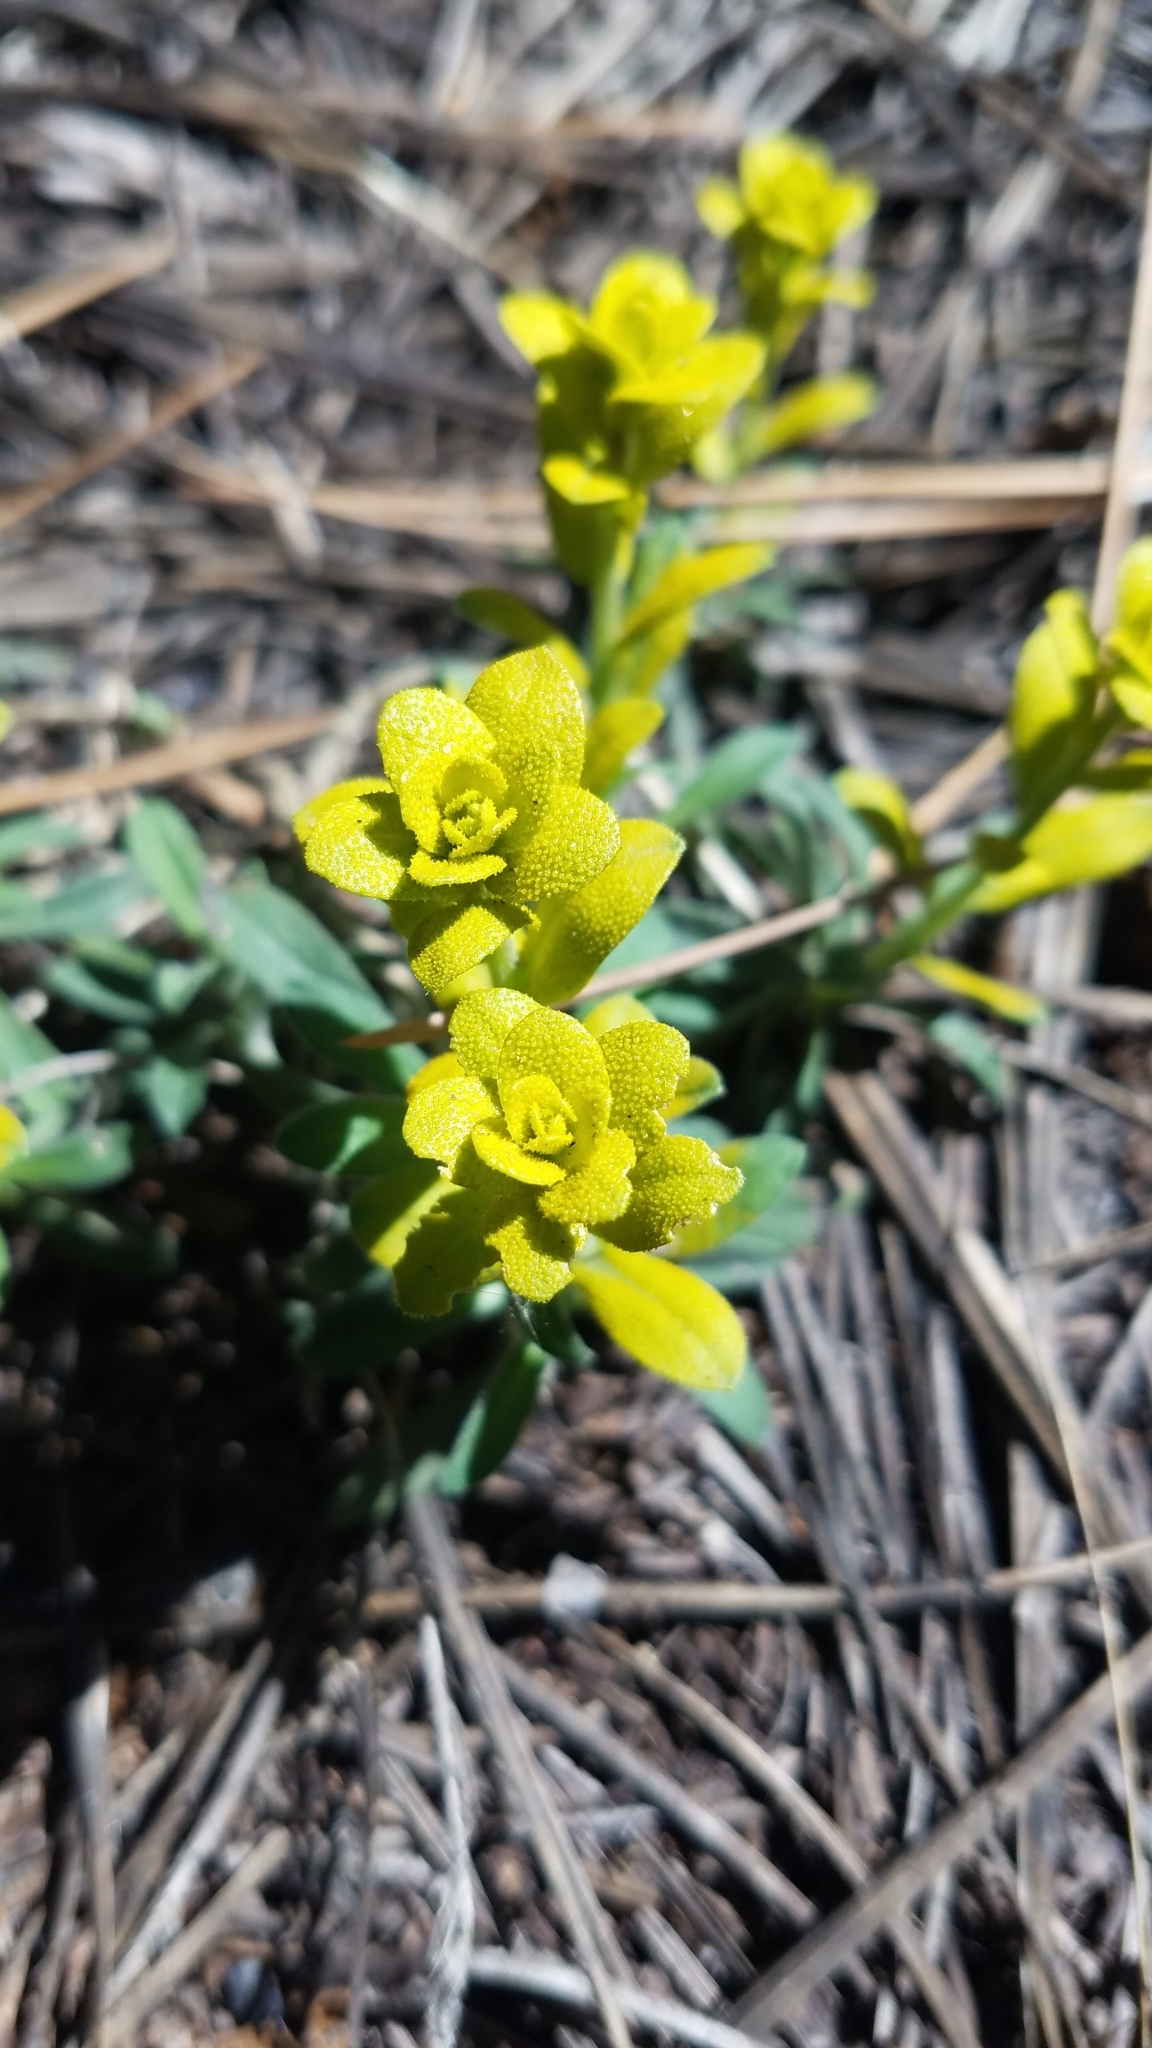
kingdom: Fungi
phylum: Basidiomycota
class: Pucciniomycetes
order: Pucciniales
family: Pucciniaceae
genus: Puccinia
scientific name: Puccinia monoica
